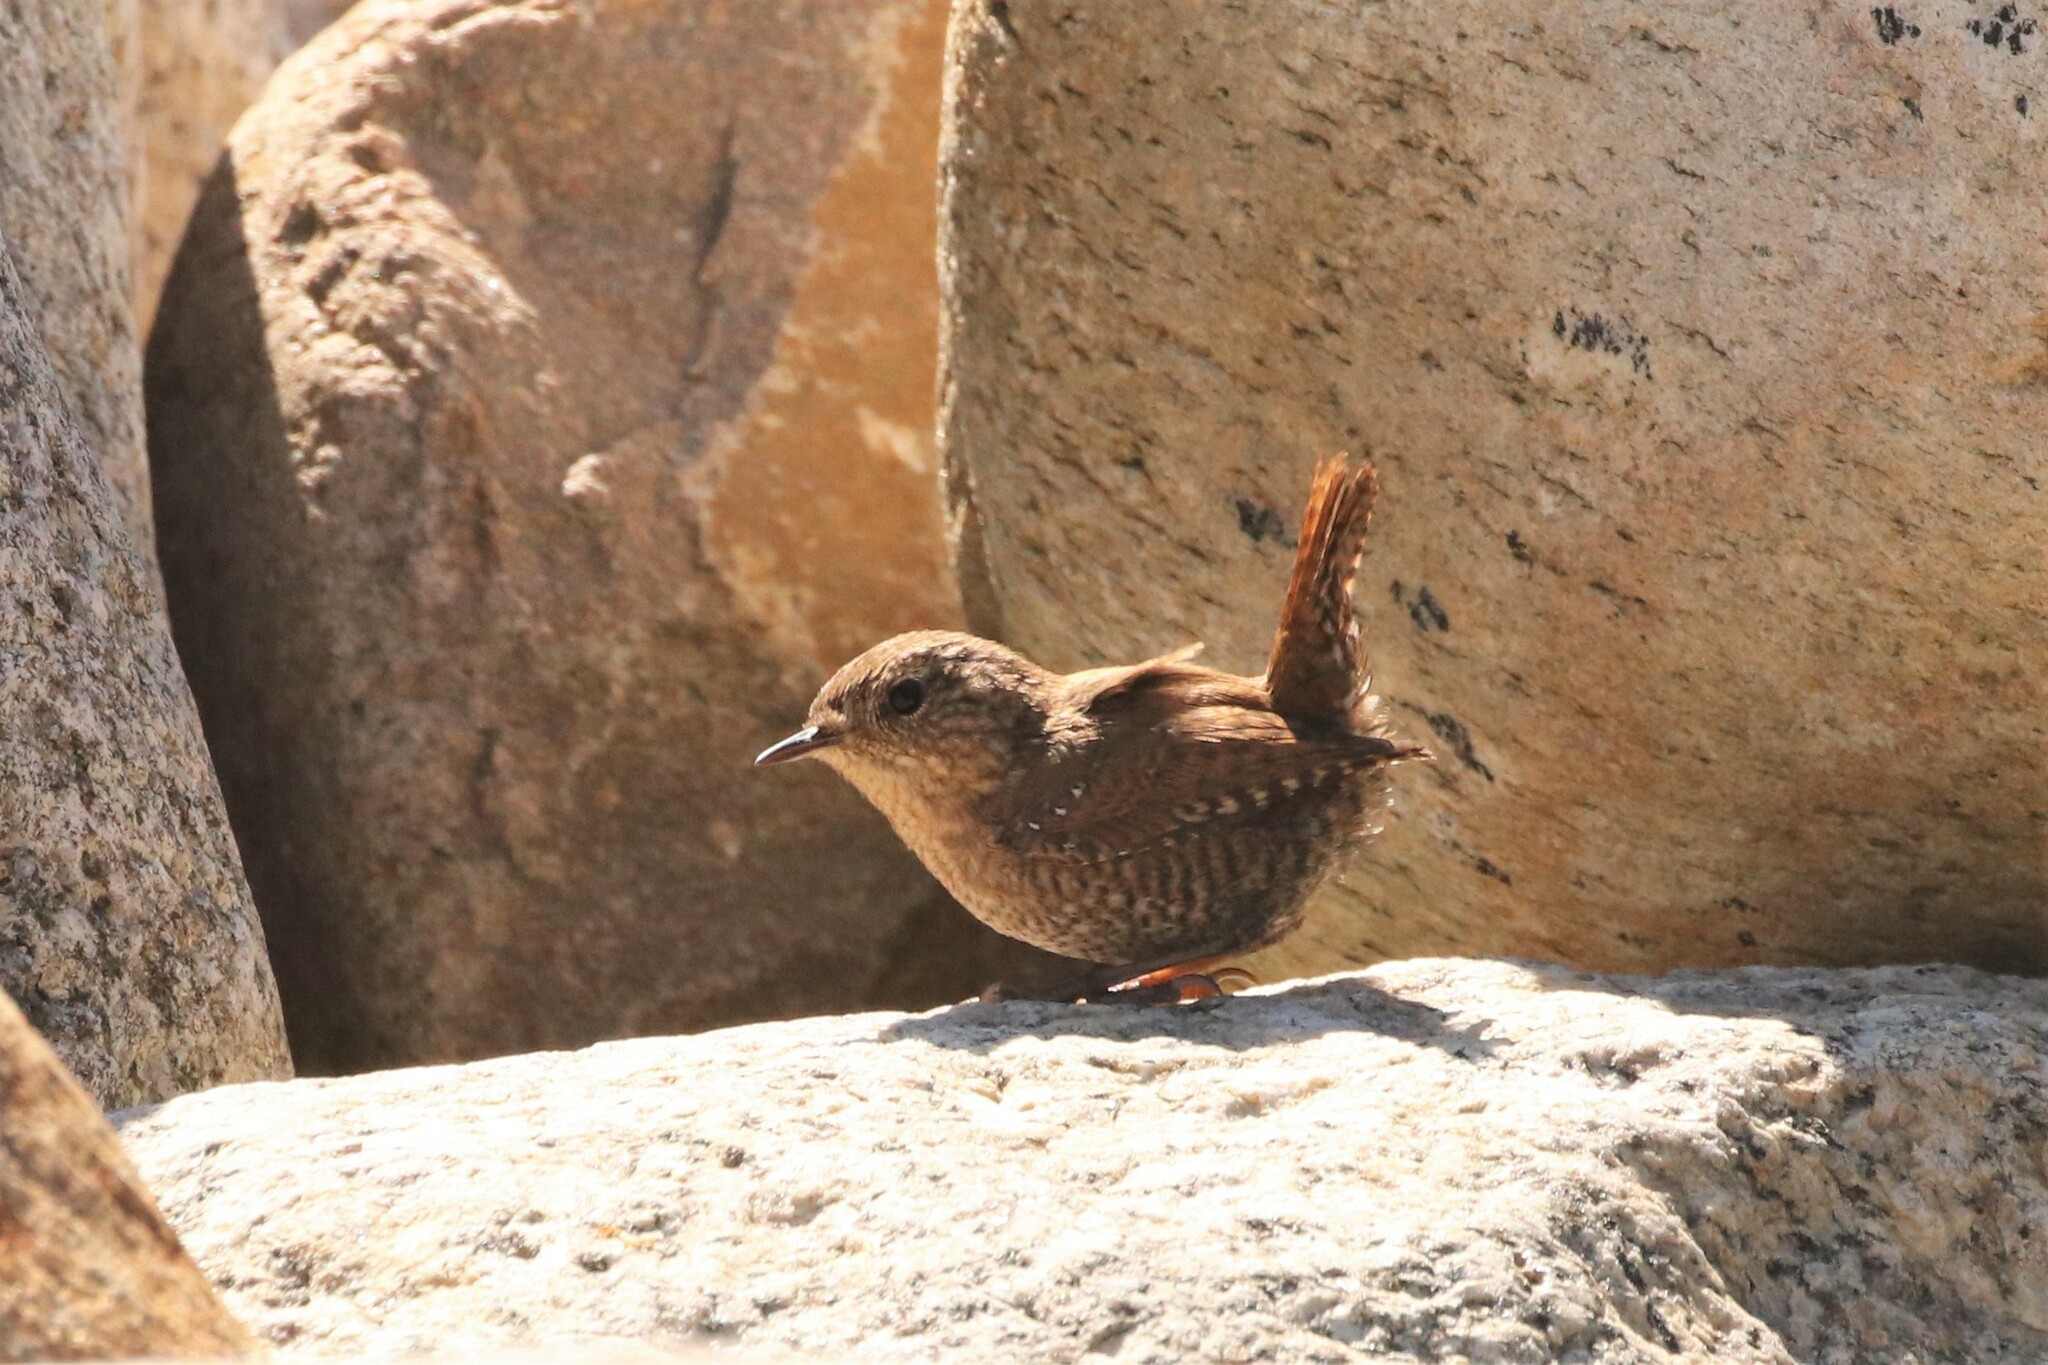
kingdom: Animalia
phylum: Chordata
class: Aves
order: Passeriformes
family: Troglodytidae
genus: Troglodytes
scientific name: Troglodytes hiemalis
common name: Winter wren
